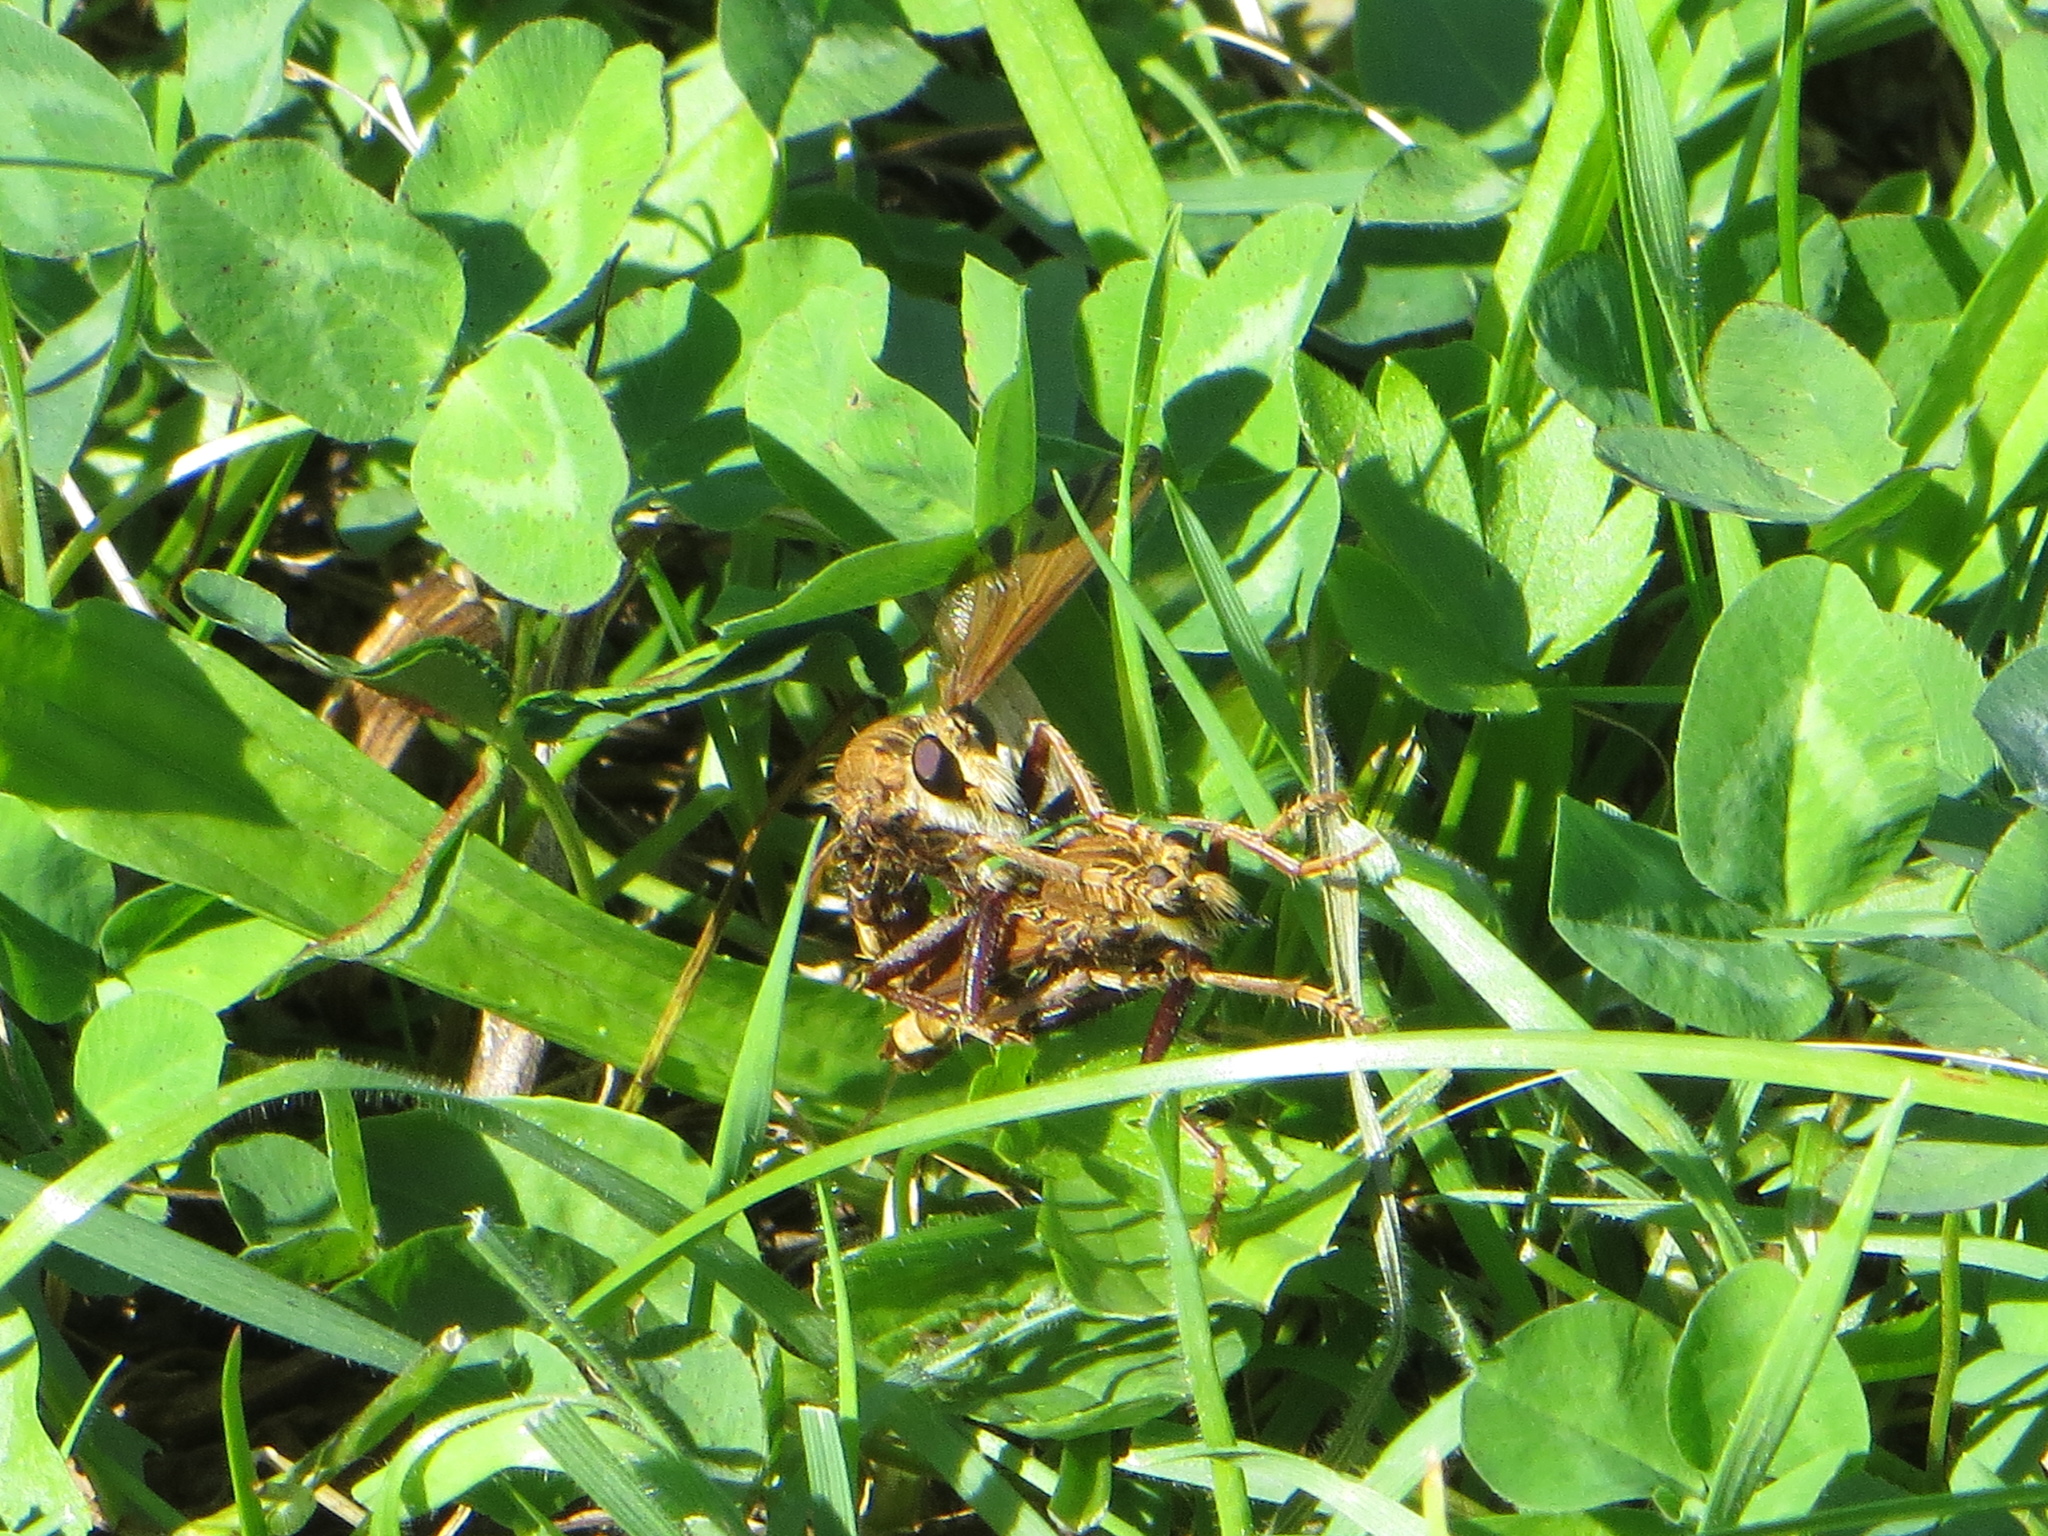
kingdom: Animalia
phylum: Arthropoda
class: Insecta
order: Diptera
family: Asilidae
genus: Asilus
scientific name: Asilus crabroniformis
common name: Hornet robberfly
